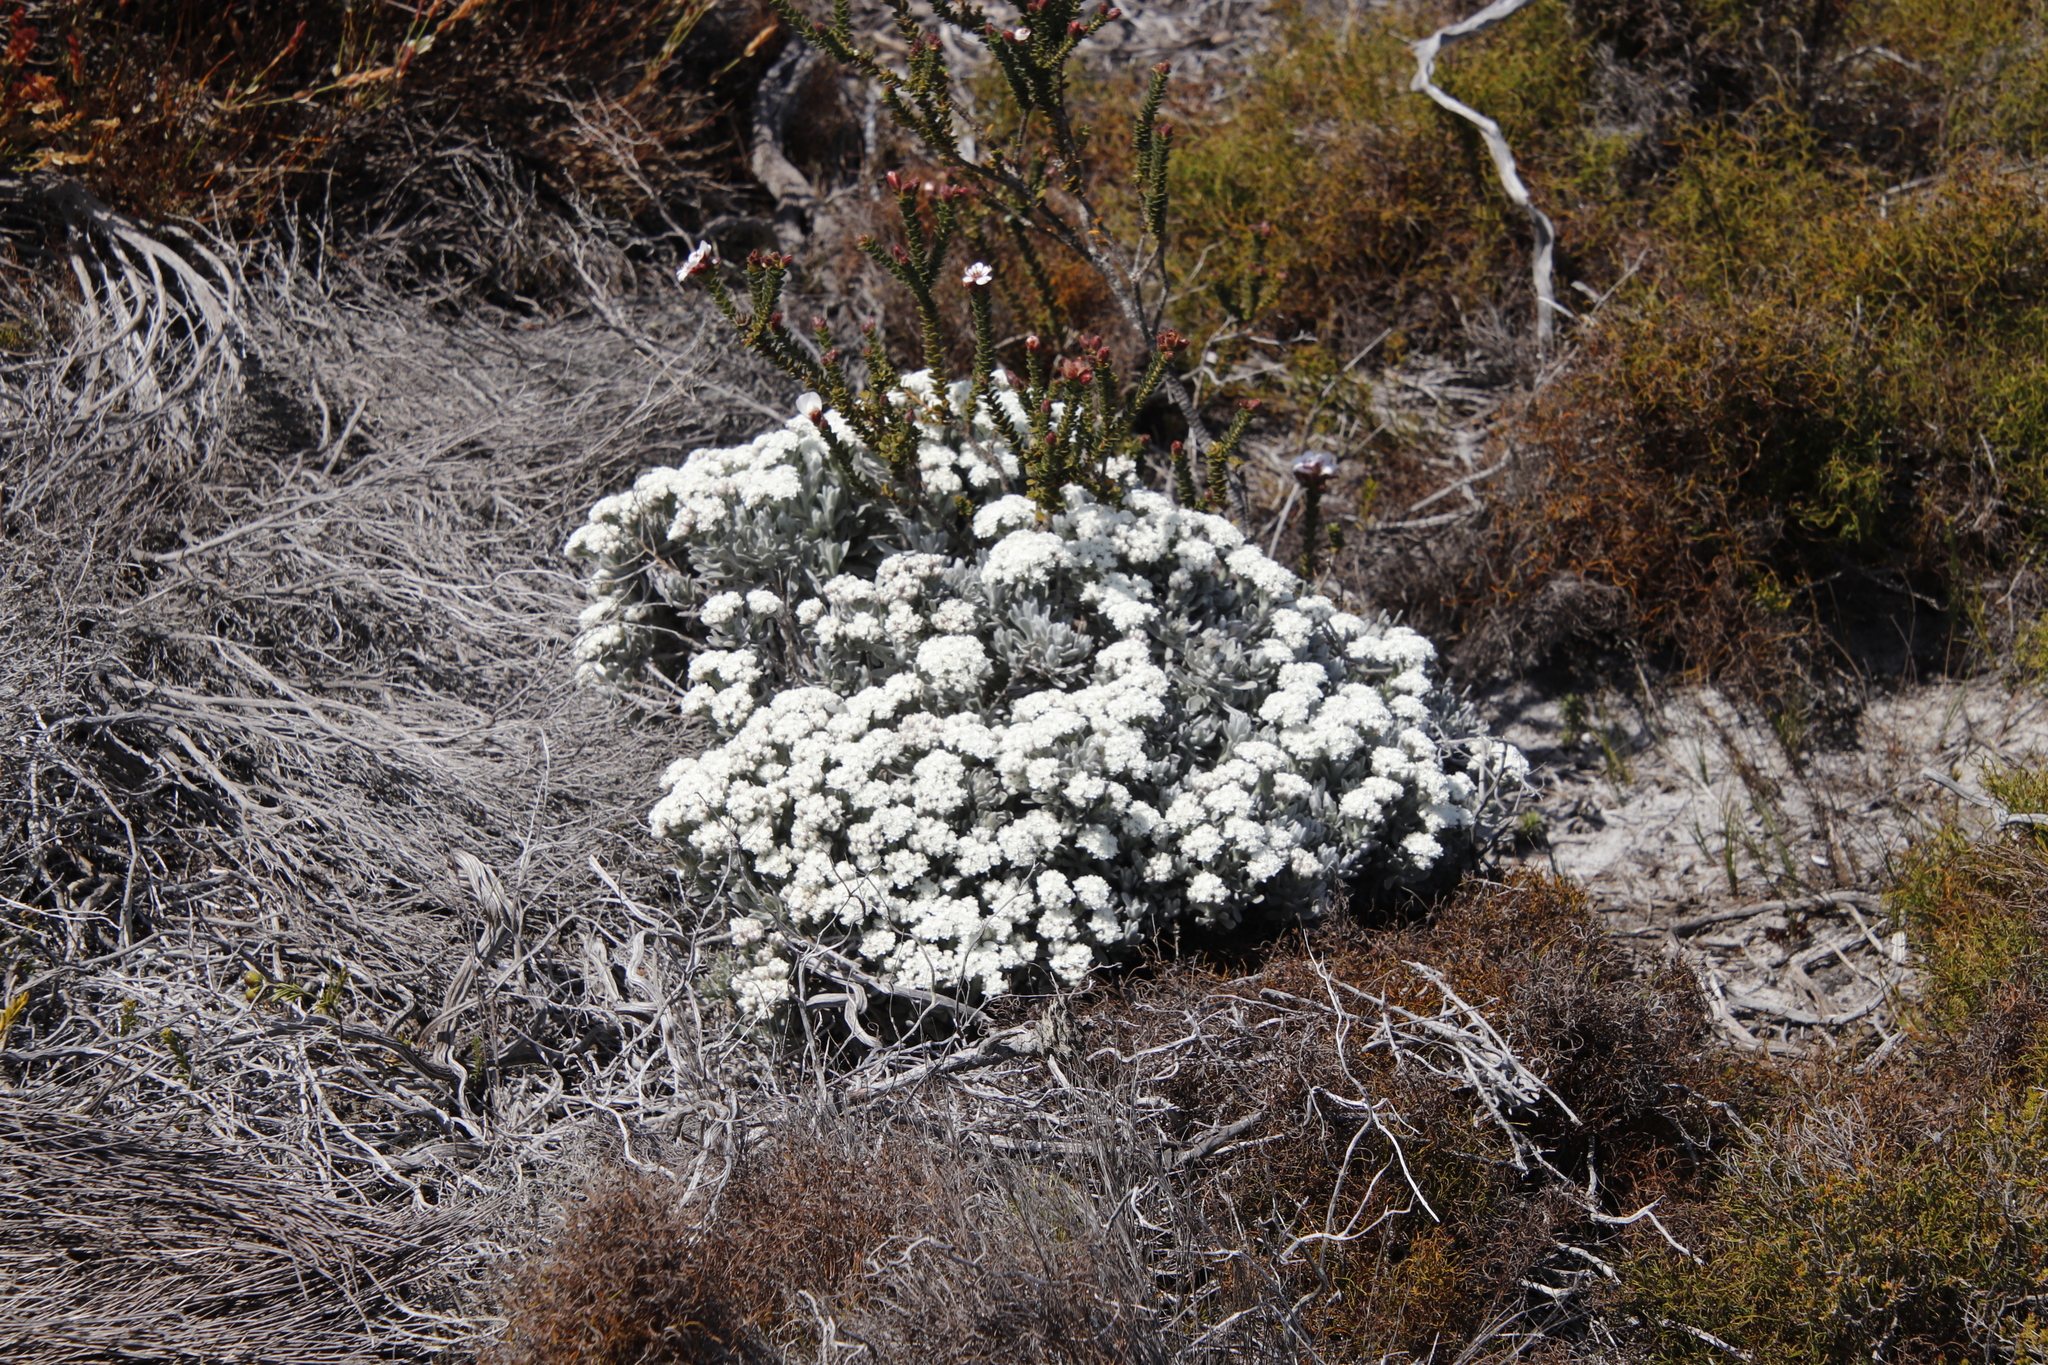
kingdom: Plantae
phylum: Tracheophyta
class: Magnoliopsida
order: Asterales
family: Asteraceae
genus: Petalacte
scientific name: Petalacte coronata
